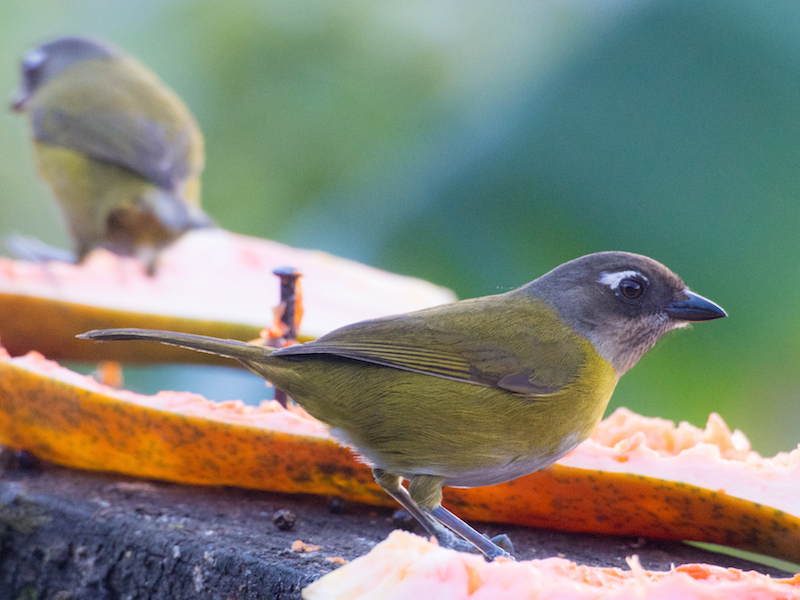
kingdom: Animalia
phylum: Chordata
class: Aves
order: Passeriformes
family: Passerellidae
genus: Chlorospingus
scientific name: Chlorospingus flavopectus
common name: Common chlorospingus
